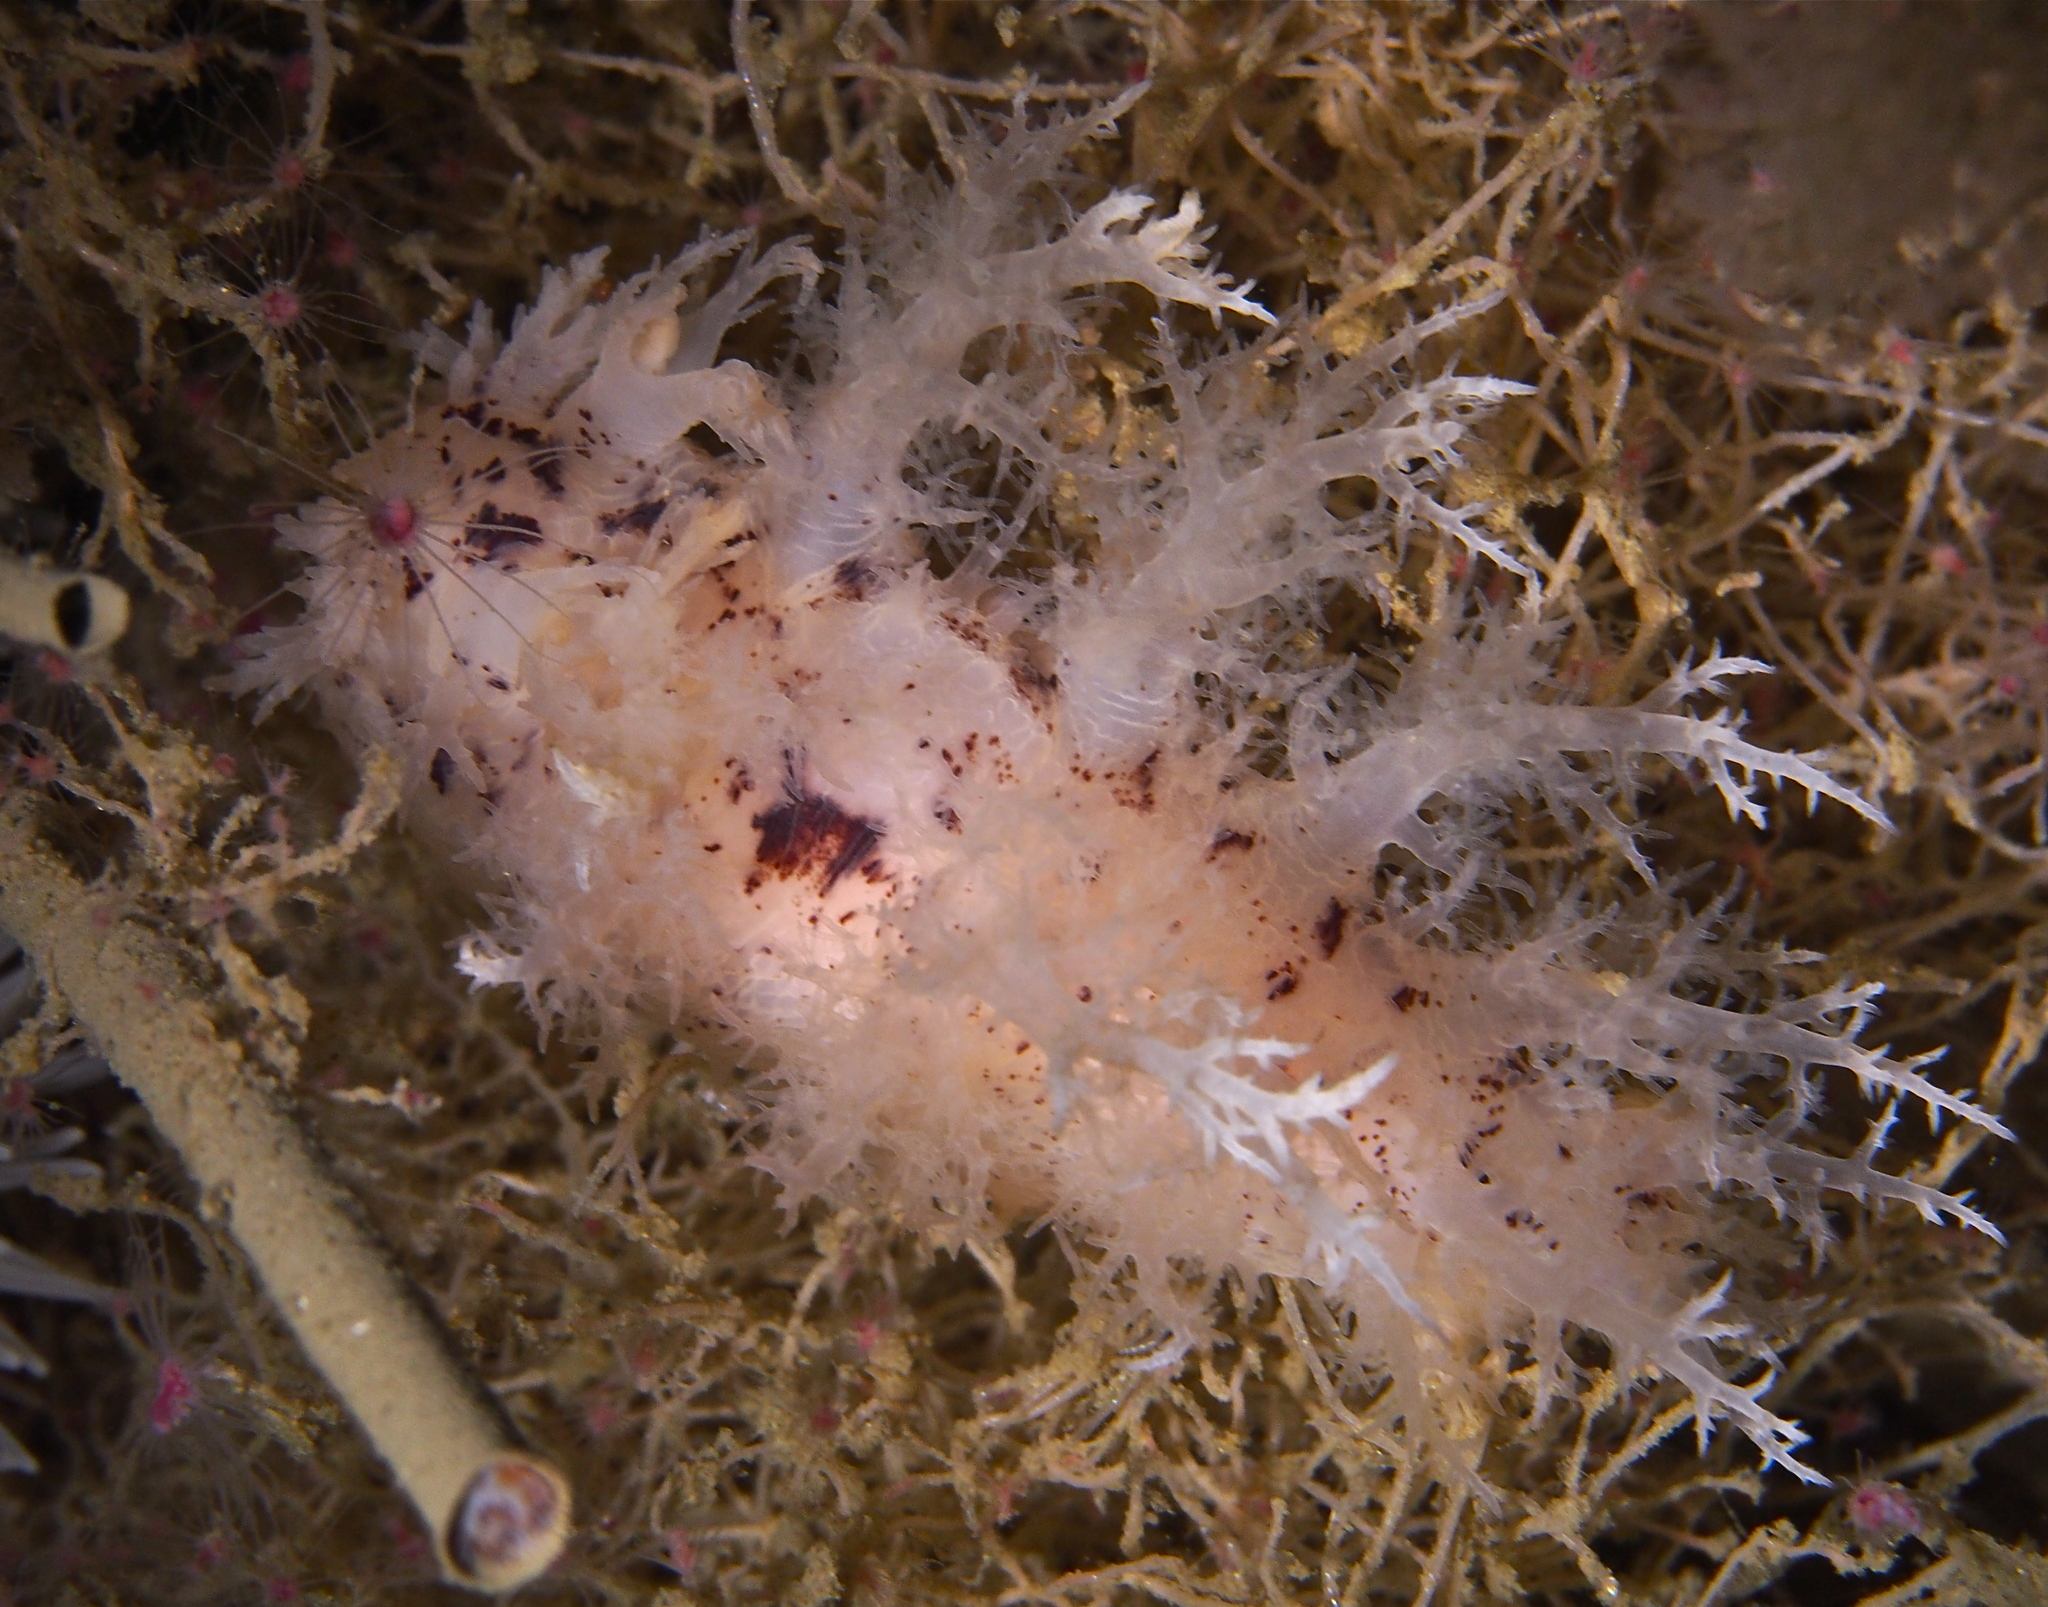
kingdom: Animalia
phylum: Mollusca
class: Gastropoda
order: Nudibranchia
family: Dendronotidae
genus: Dendronotus
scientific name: Dendronotus europaeus
